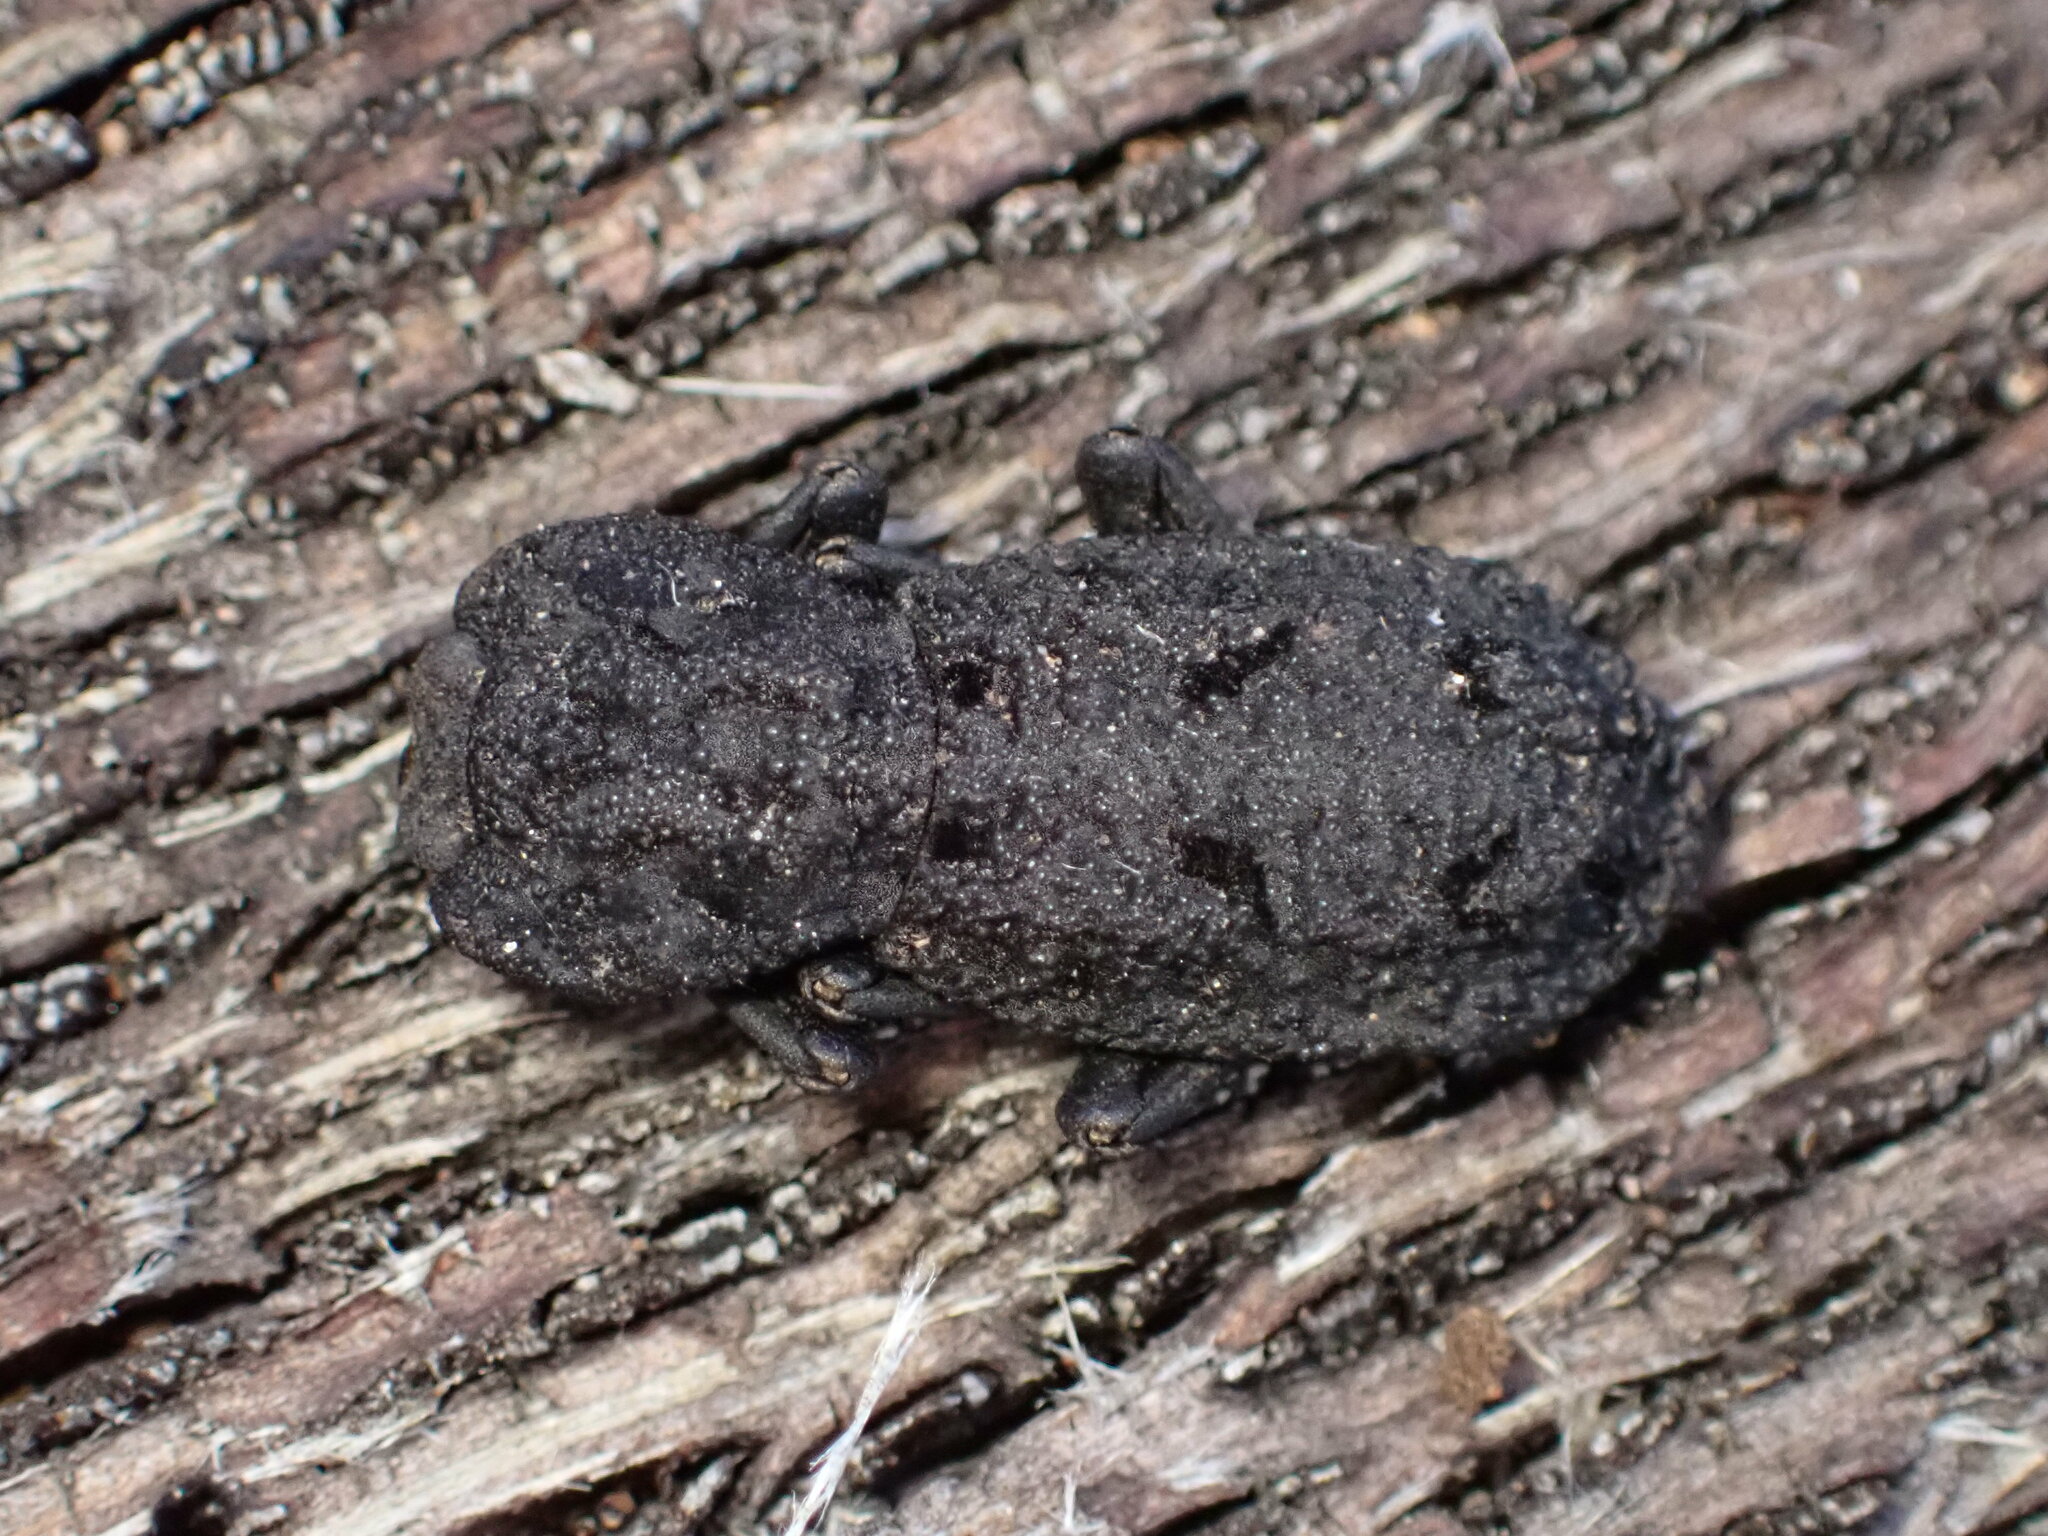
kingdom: Animalia
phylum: Arthropoda
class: Insecta
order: Coleoptera
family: Zopheridae
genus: Phloeodes
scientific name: Phloeodes diabolicus
